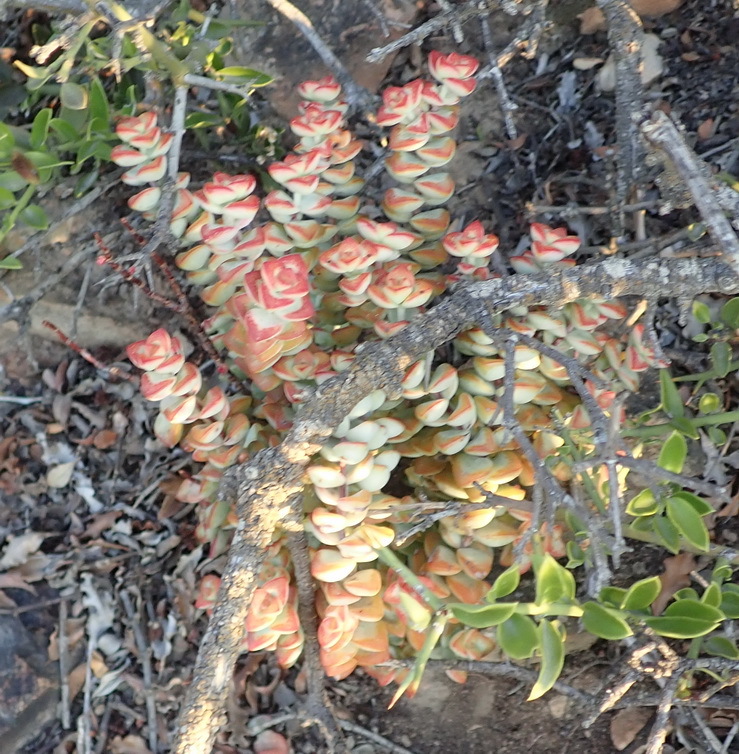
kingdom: Plantae
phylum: Tracheophyta
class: Magnoliopsida
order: Saxifragales
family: Crassulaceae
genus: Crassula
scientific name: Crassula rupestris
